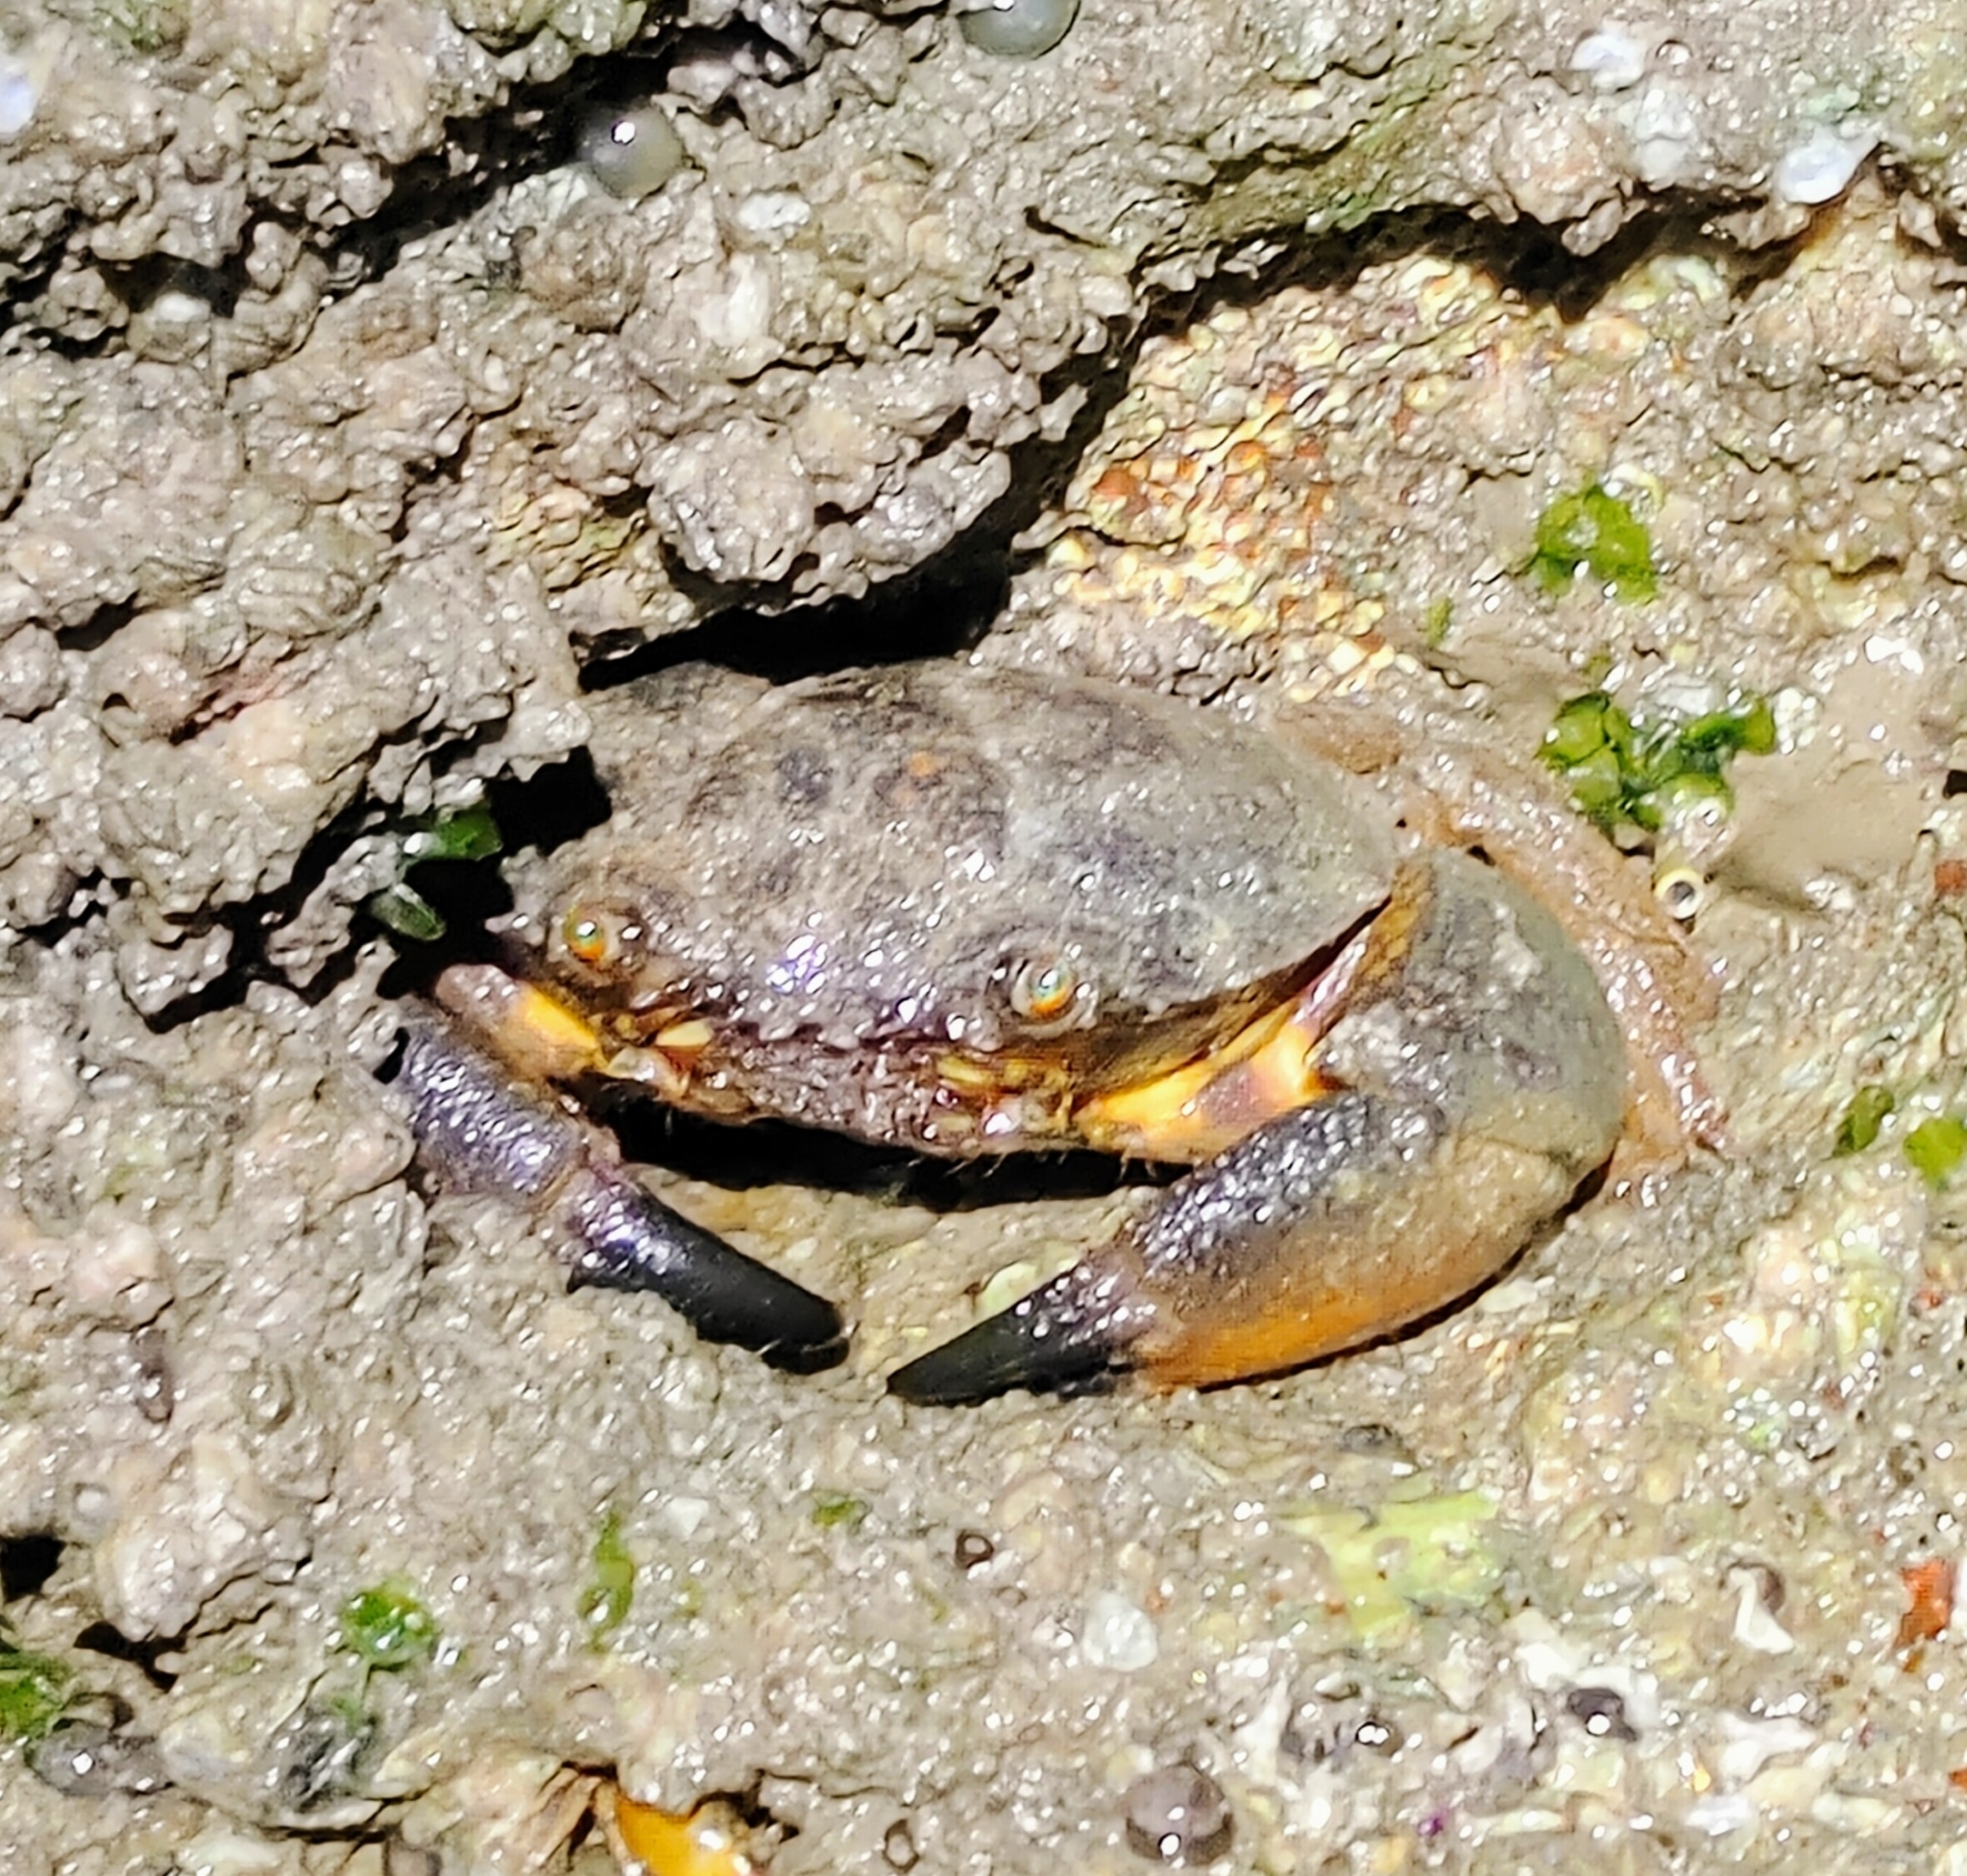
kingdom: Animalia
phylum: Arthropoda
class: Malacostraca
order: Decapoda
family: Menippidae
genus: Myomenippe
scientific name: Myomenippe hardwickii
